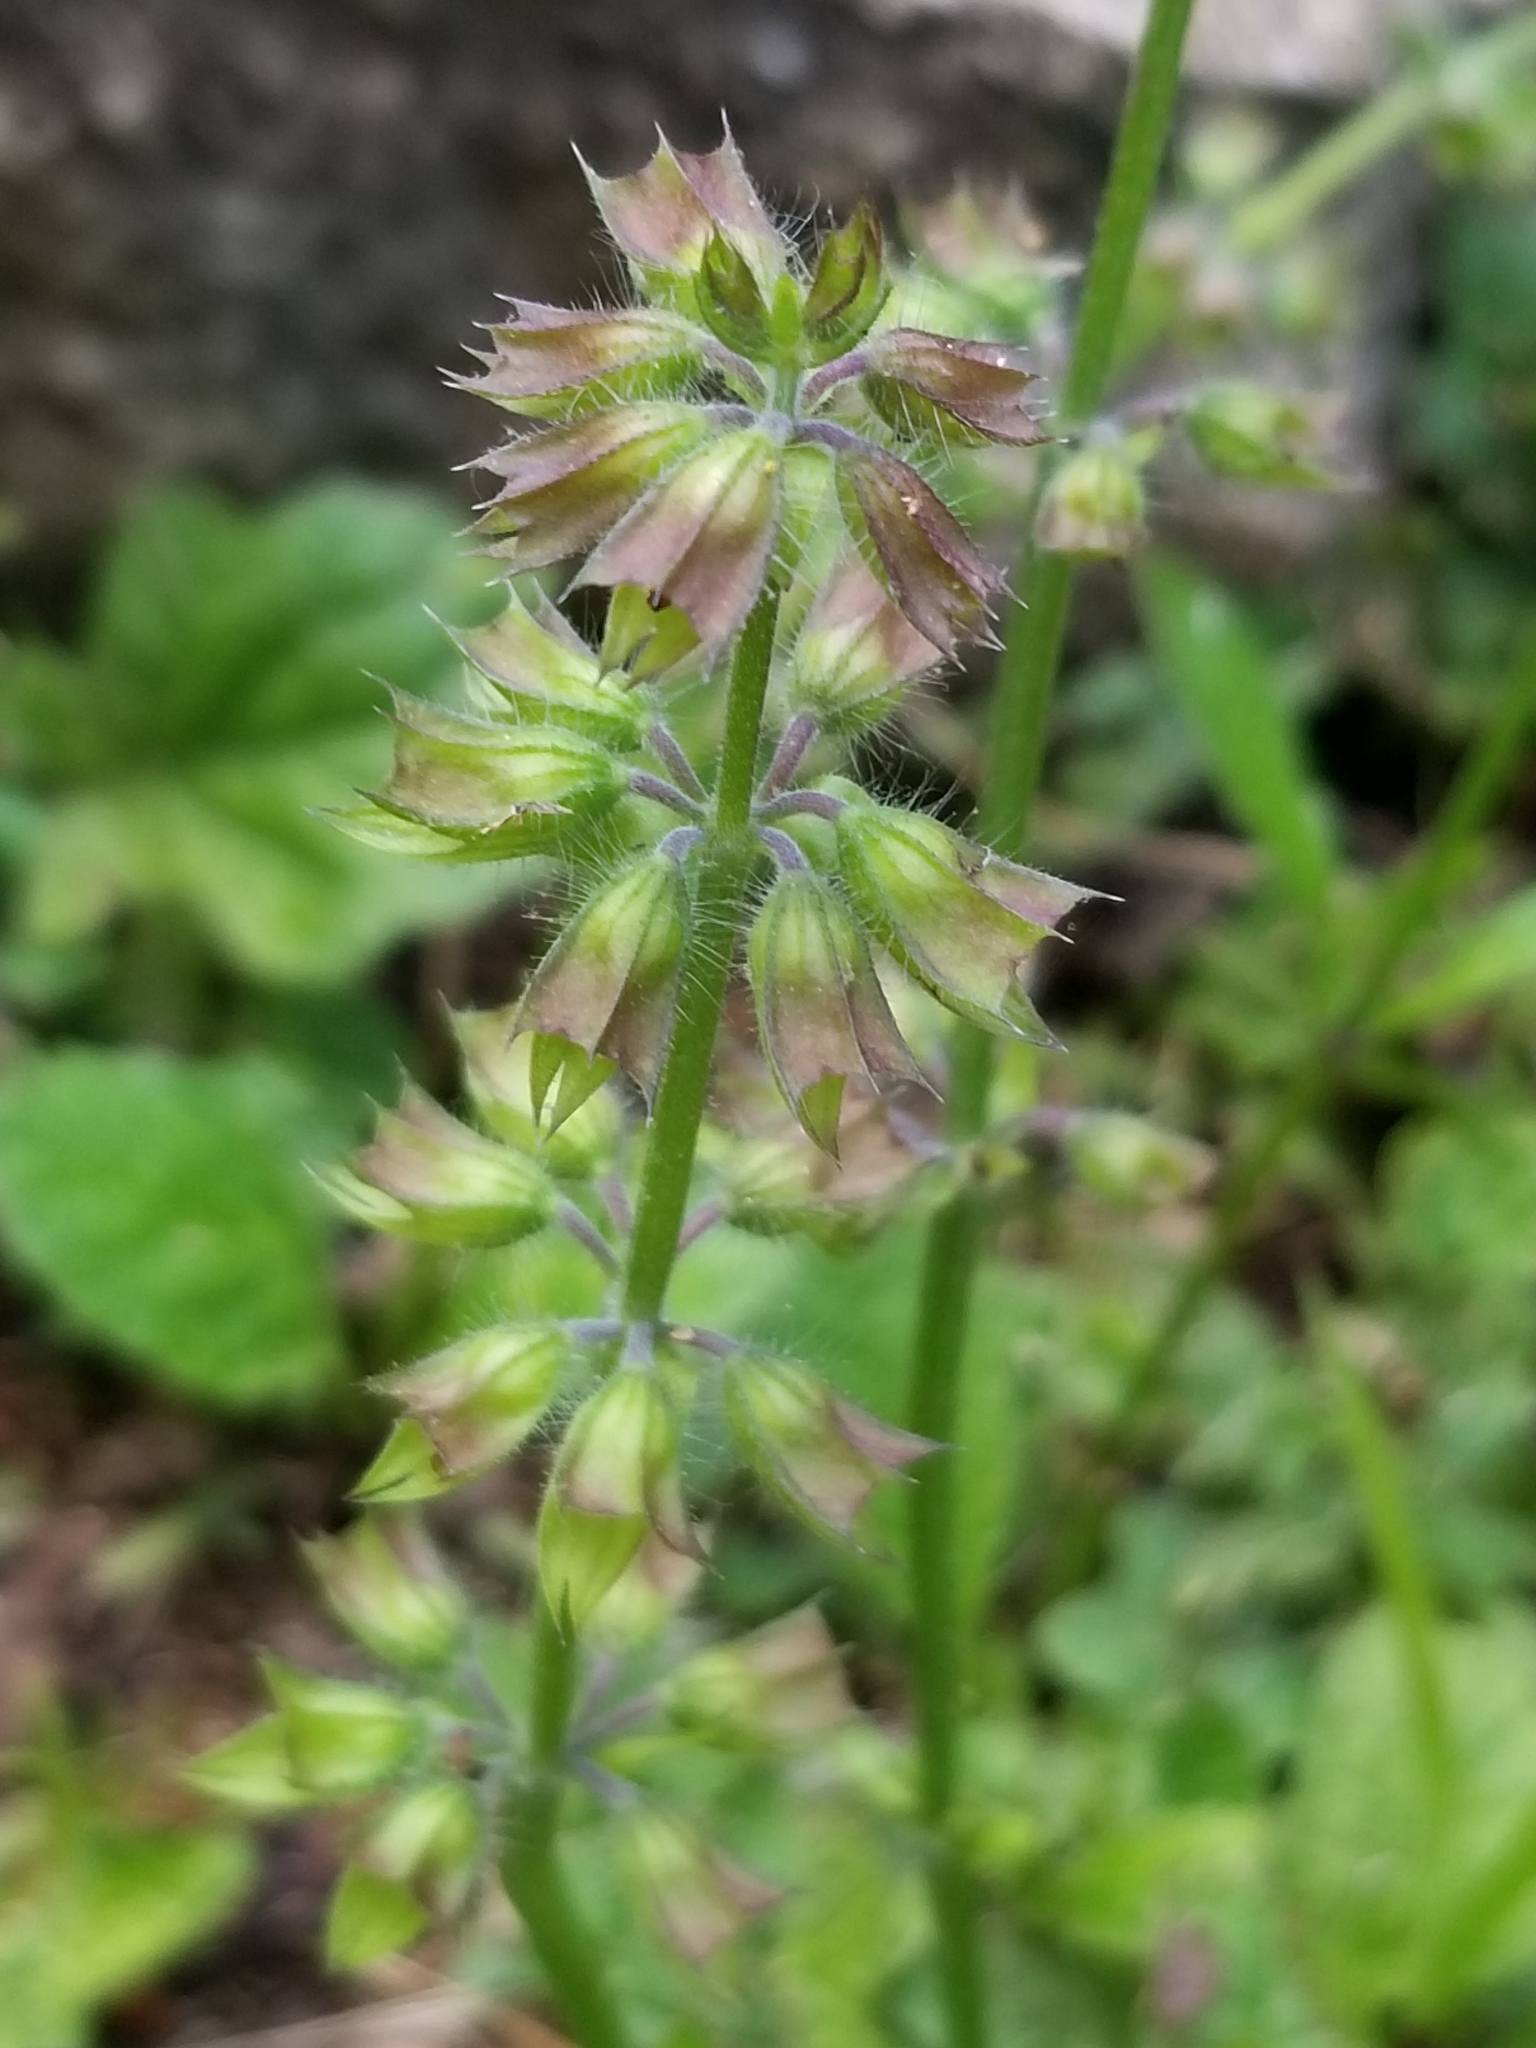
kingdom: Plantae
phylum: Tracheophyta
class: Magnoliopsida
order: Lamiales
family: Lamiaceae
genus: Salvia
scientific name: Salvia lyrata
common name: Cancerweed
